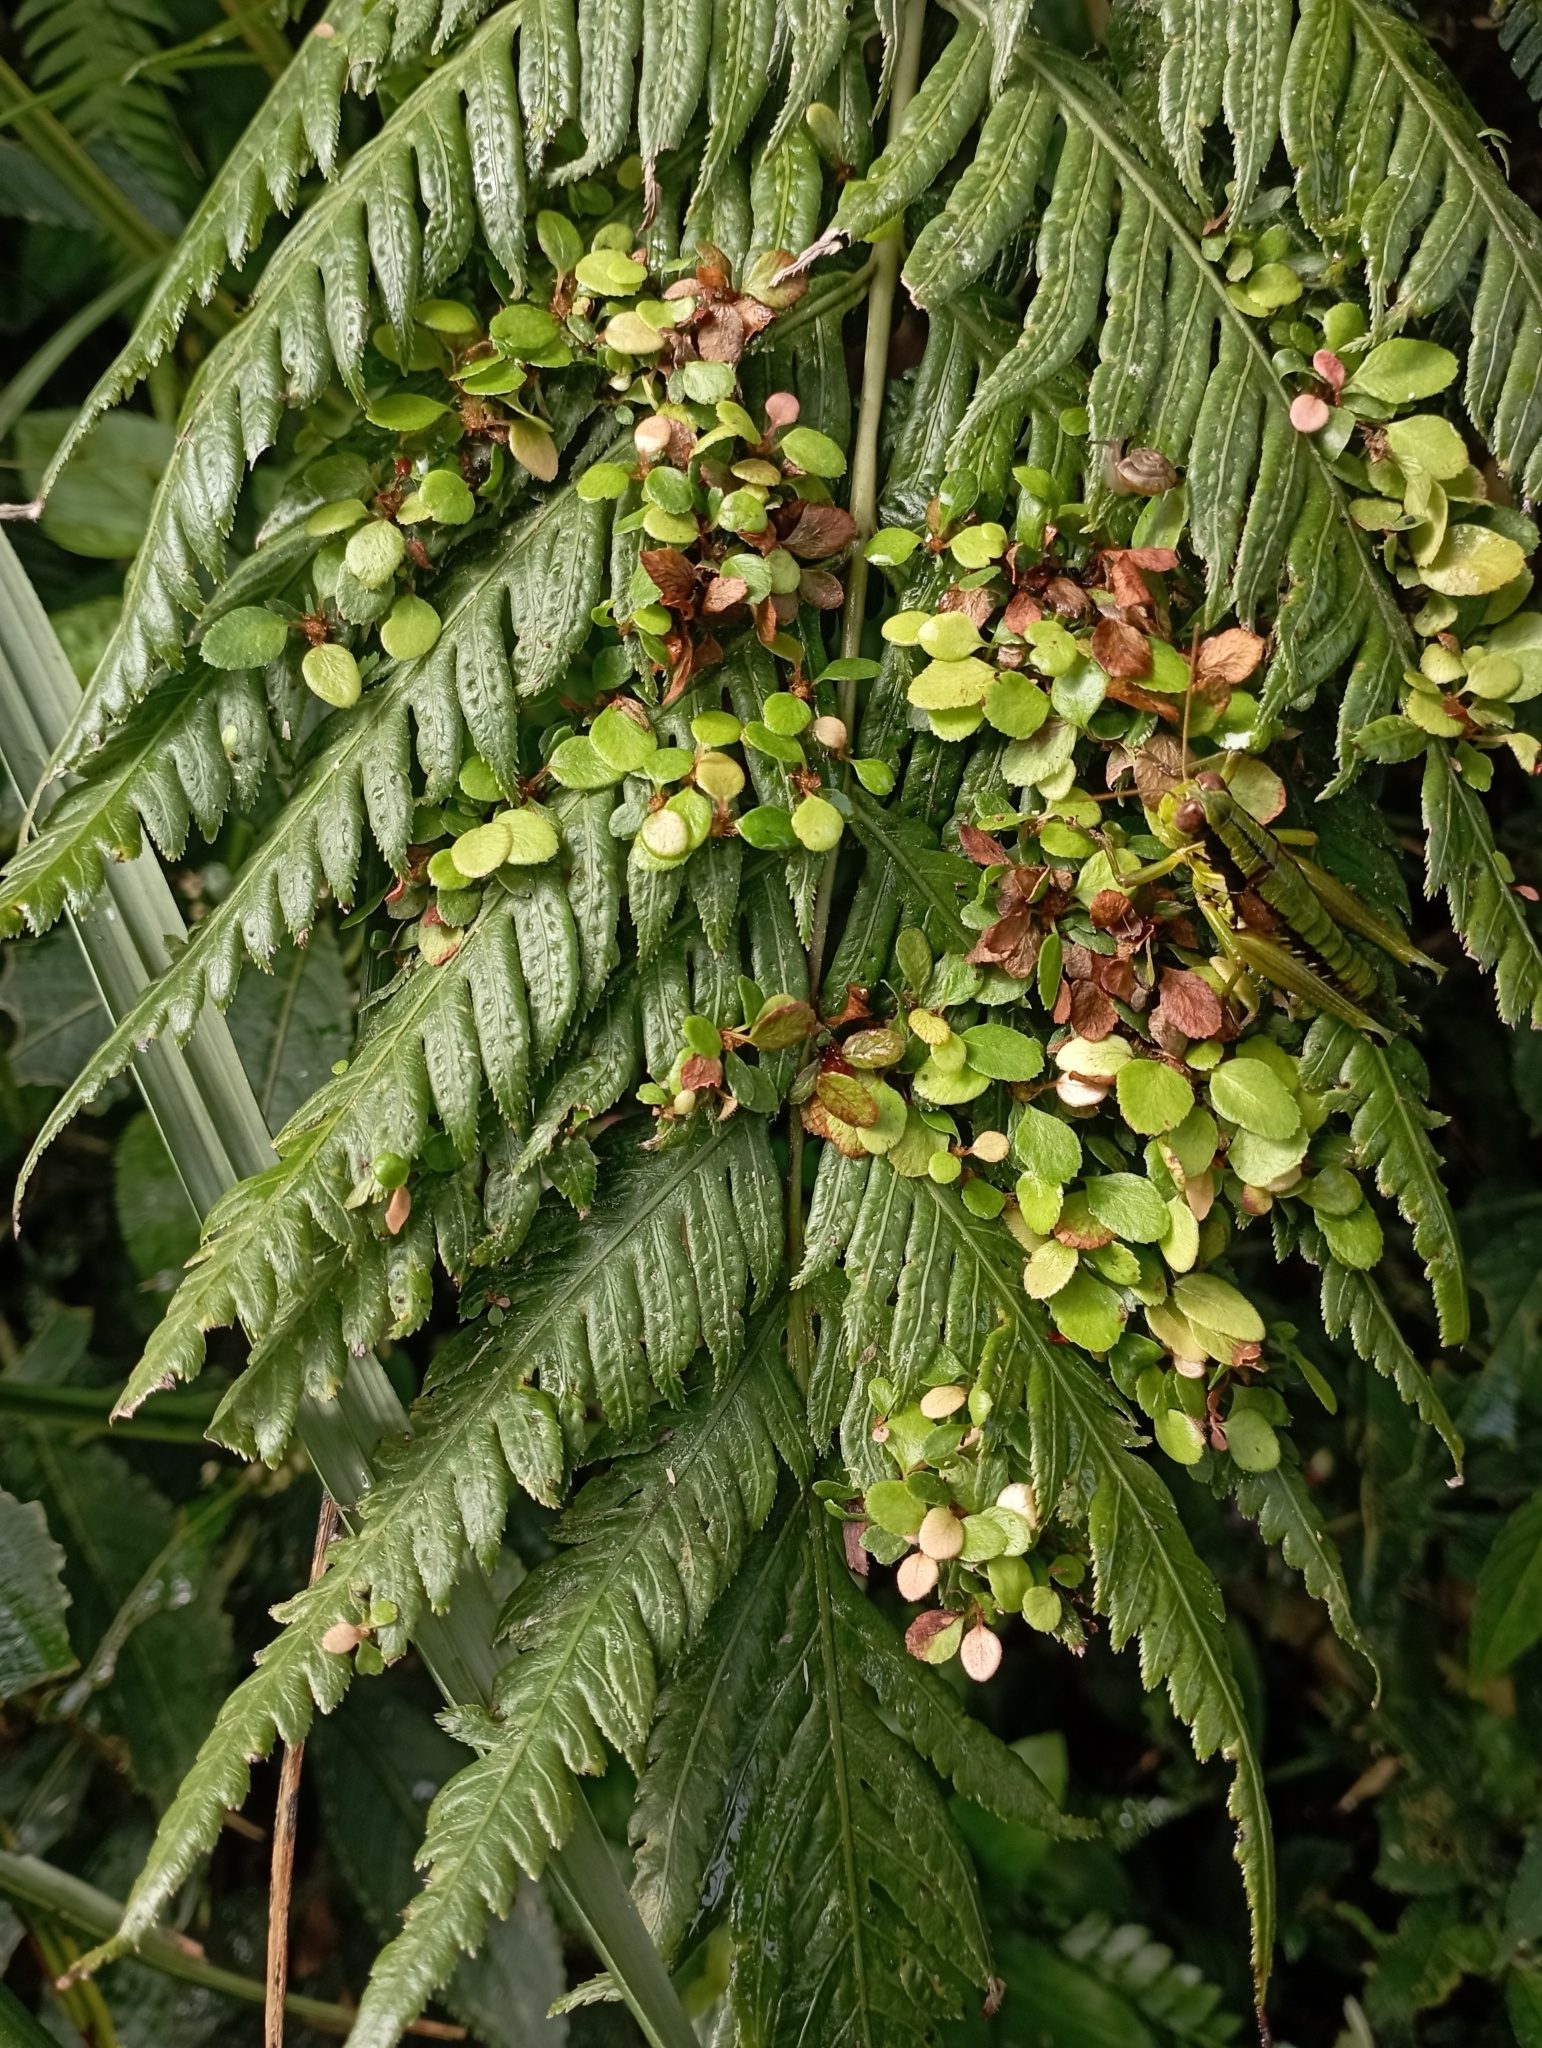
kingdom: Plantae
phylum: Tracheophyta
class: Polypodiopsida
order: Polypodiales
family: Blechnaceae
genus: Woodwardia
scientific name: Woodwardia prolifera
